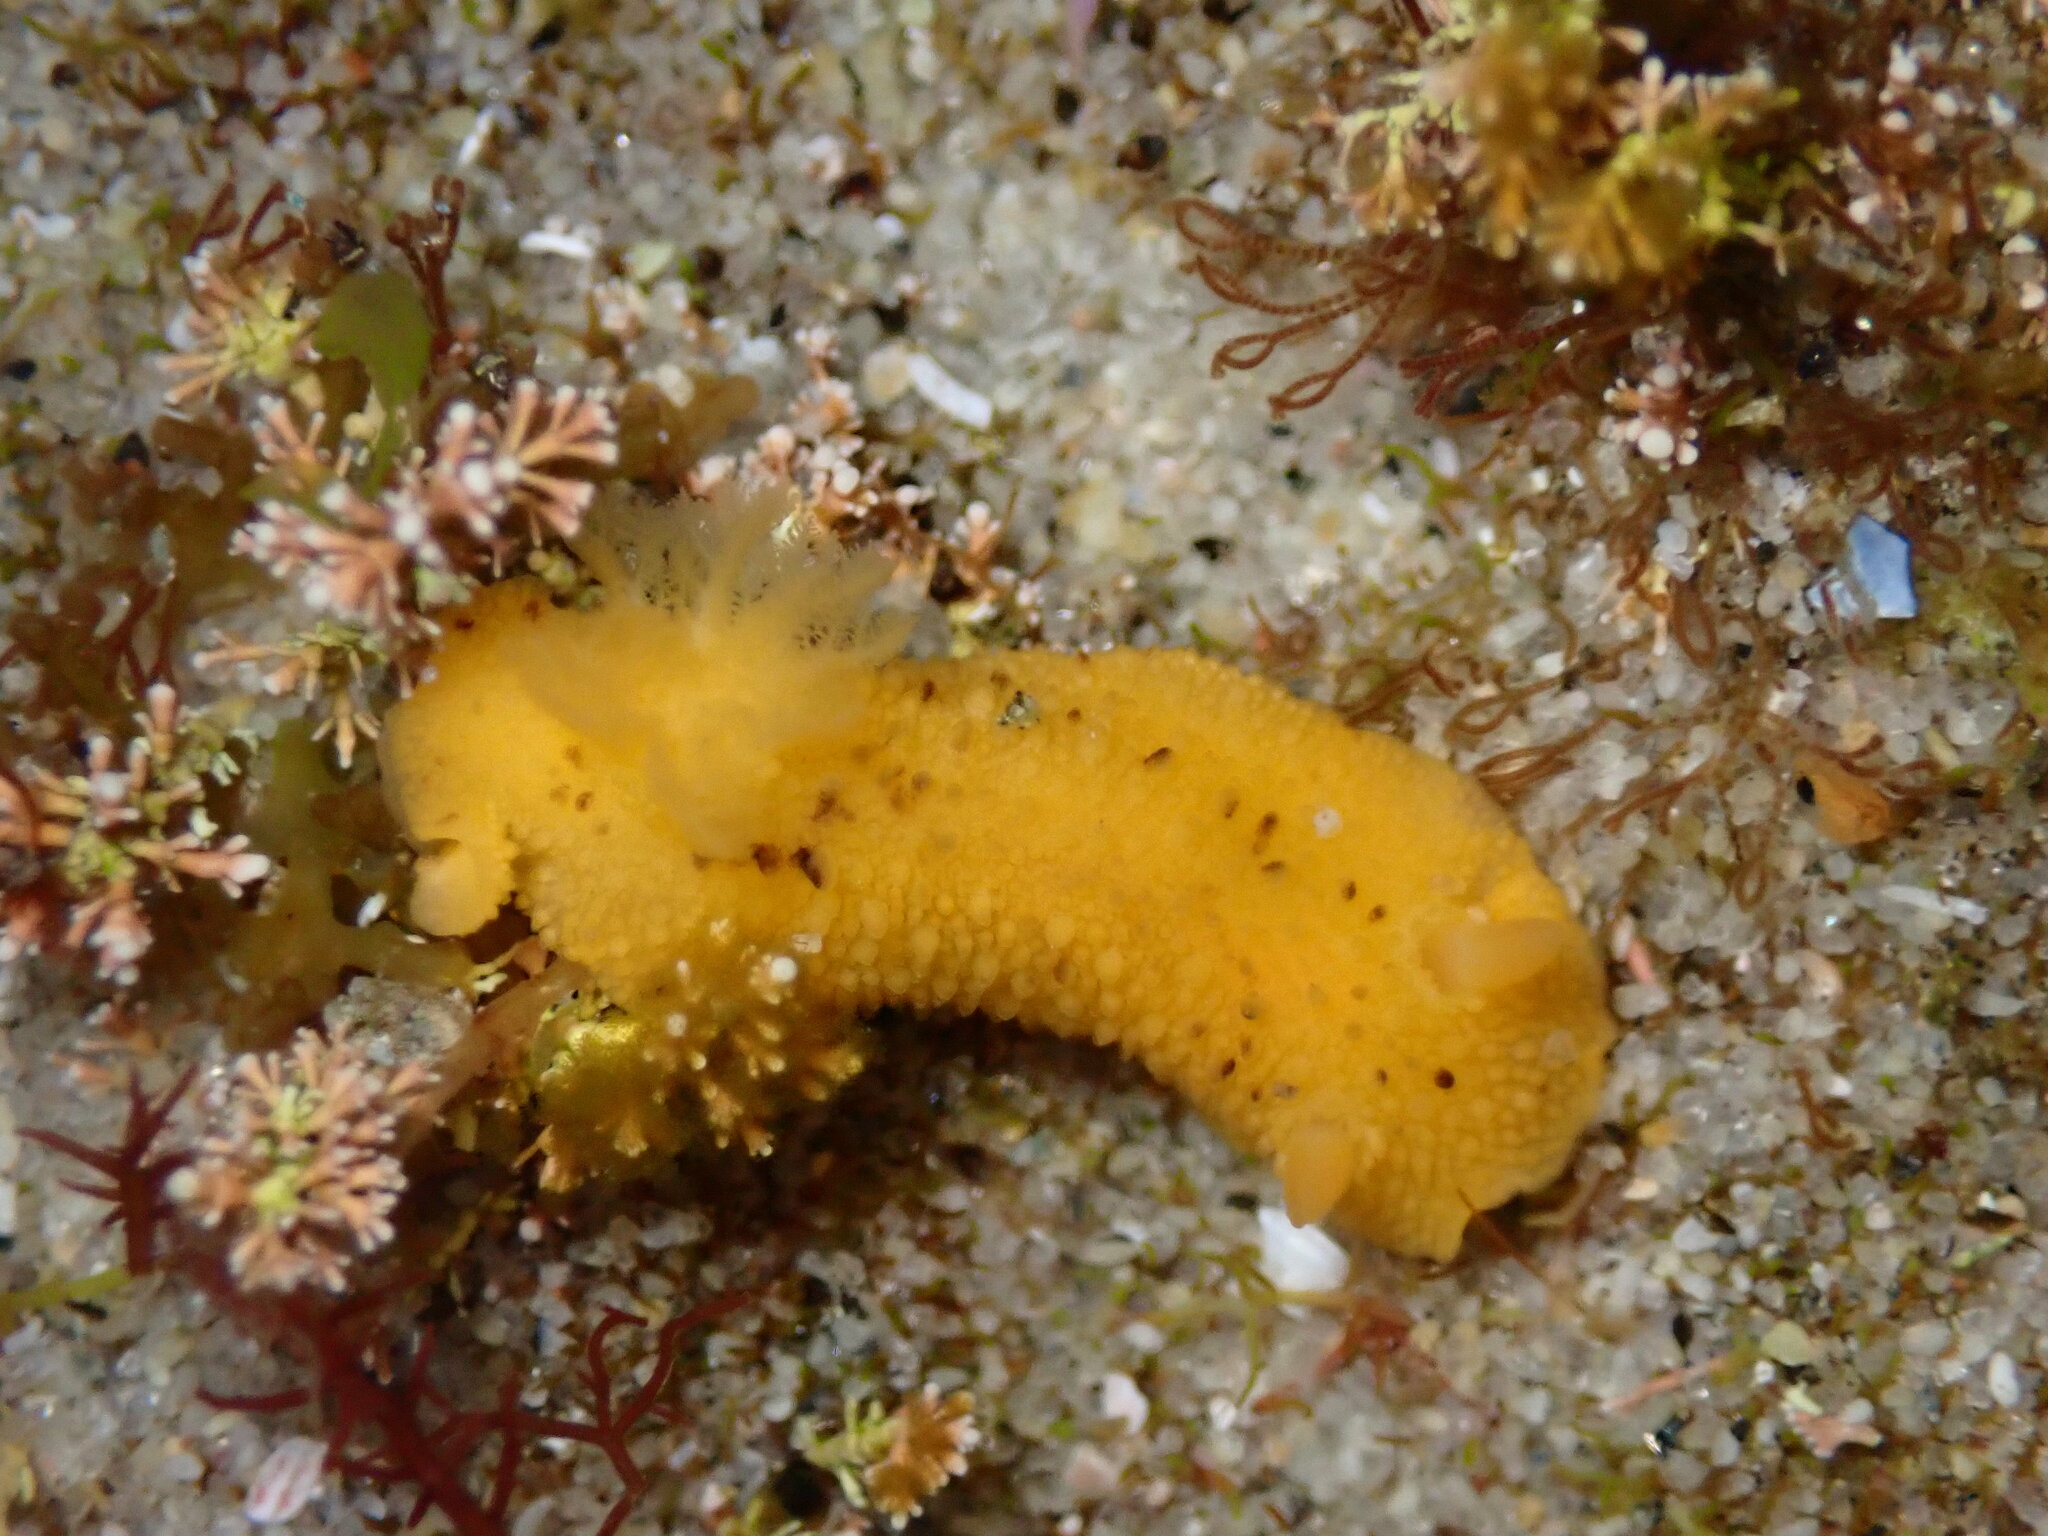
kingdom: Animalia
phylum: Mollusca
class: Gastropoda
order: Nudibranchia
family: Dorididae
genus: Doris
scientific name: Doris montereyensis
